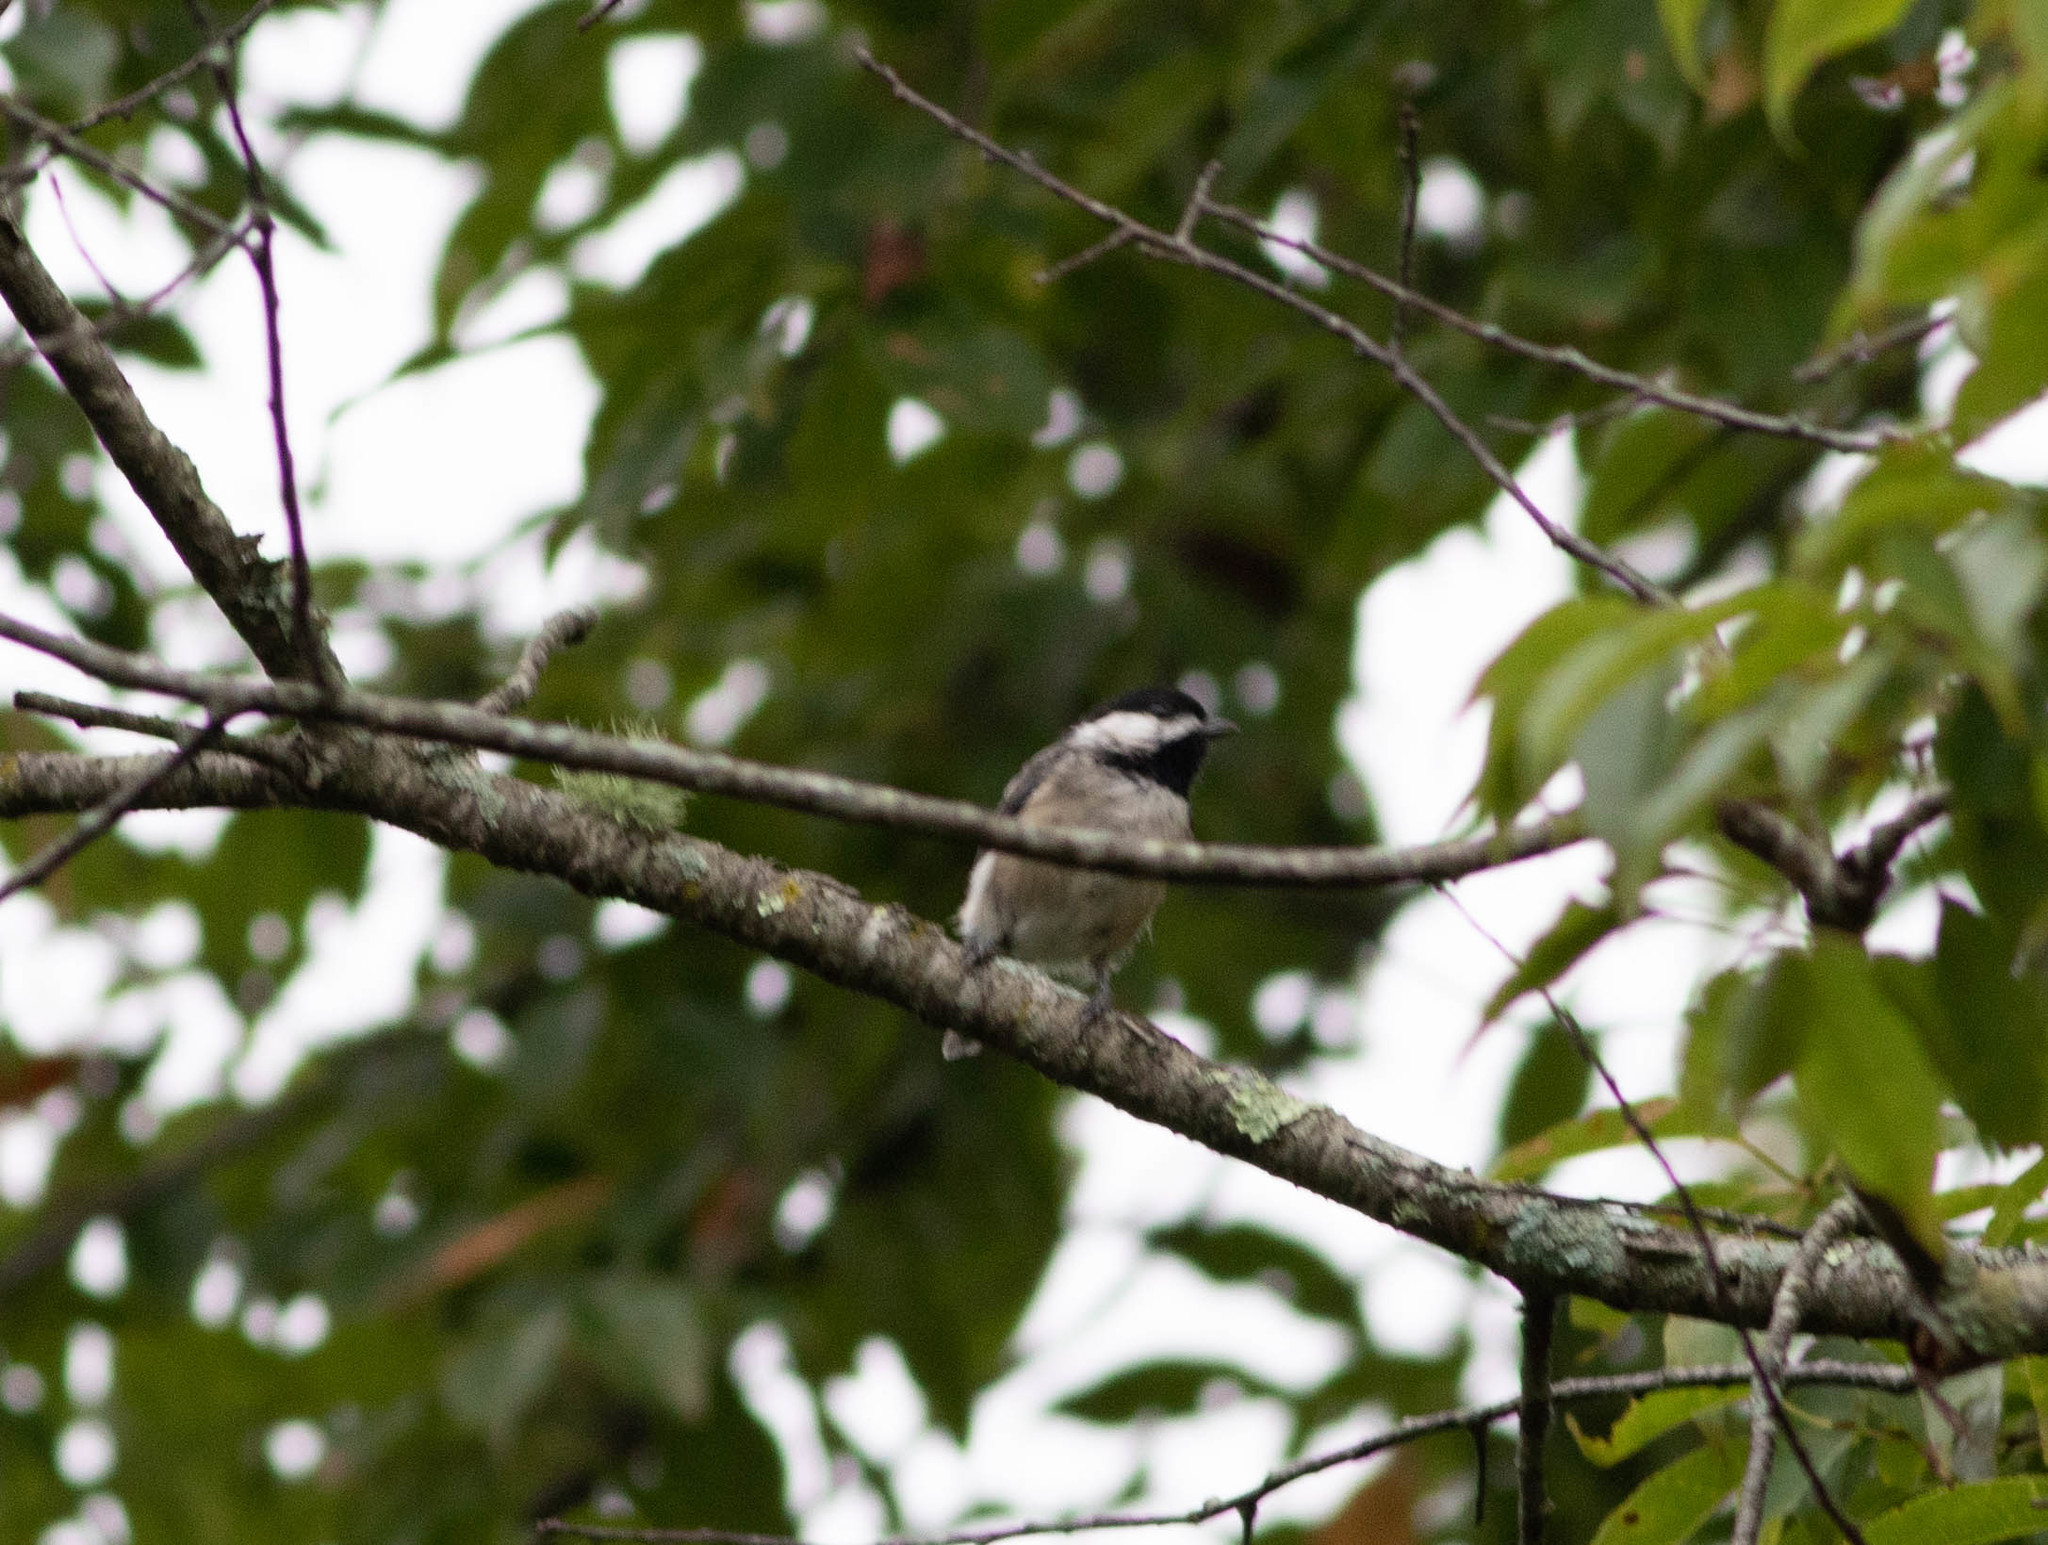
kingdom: Animalia
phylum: Chordata
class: Aves
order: Passeriformes
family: Paridae
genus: Poecile
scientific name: Poecile carolinensis
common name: Carolina chickadee
